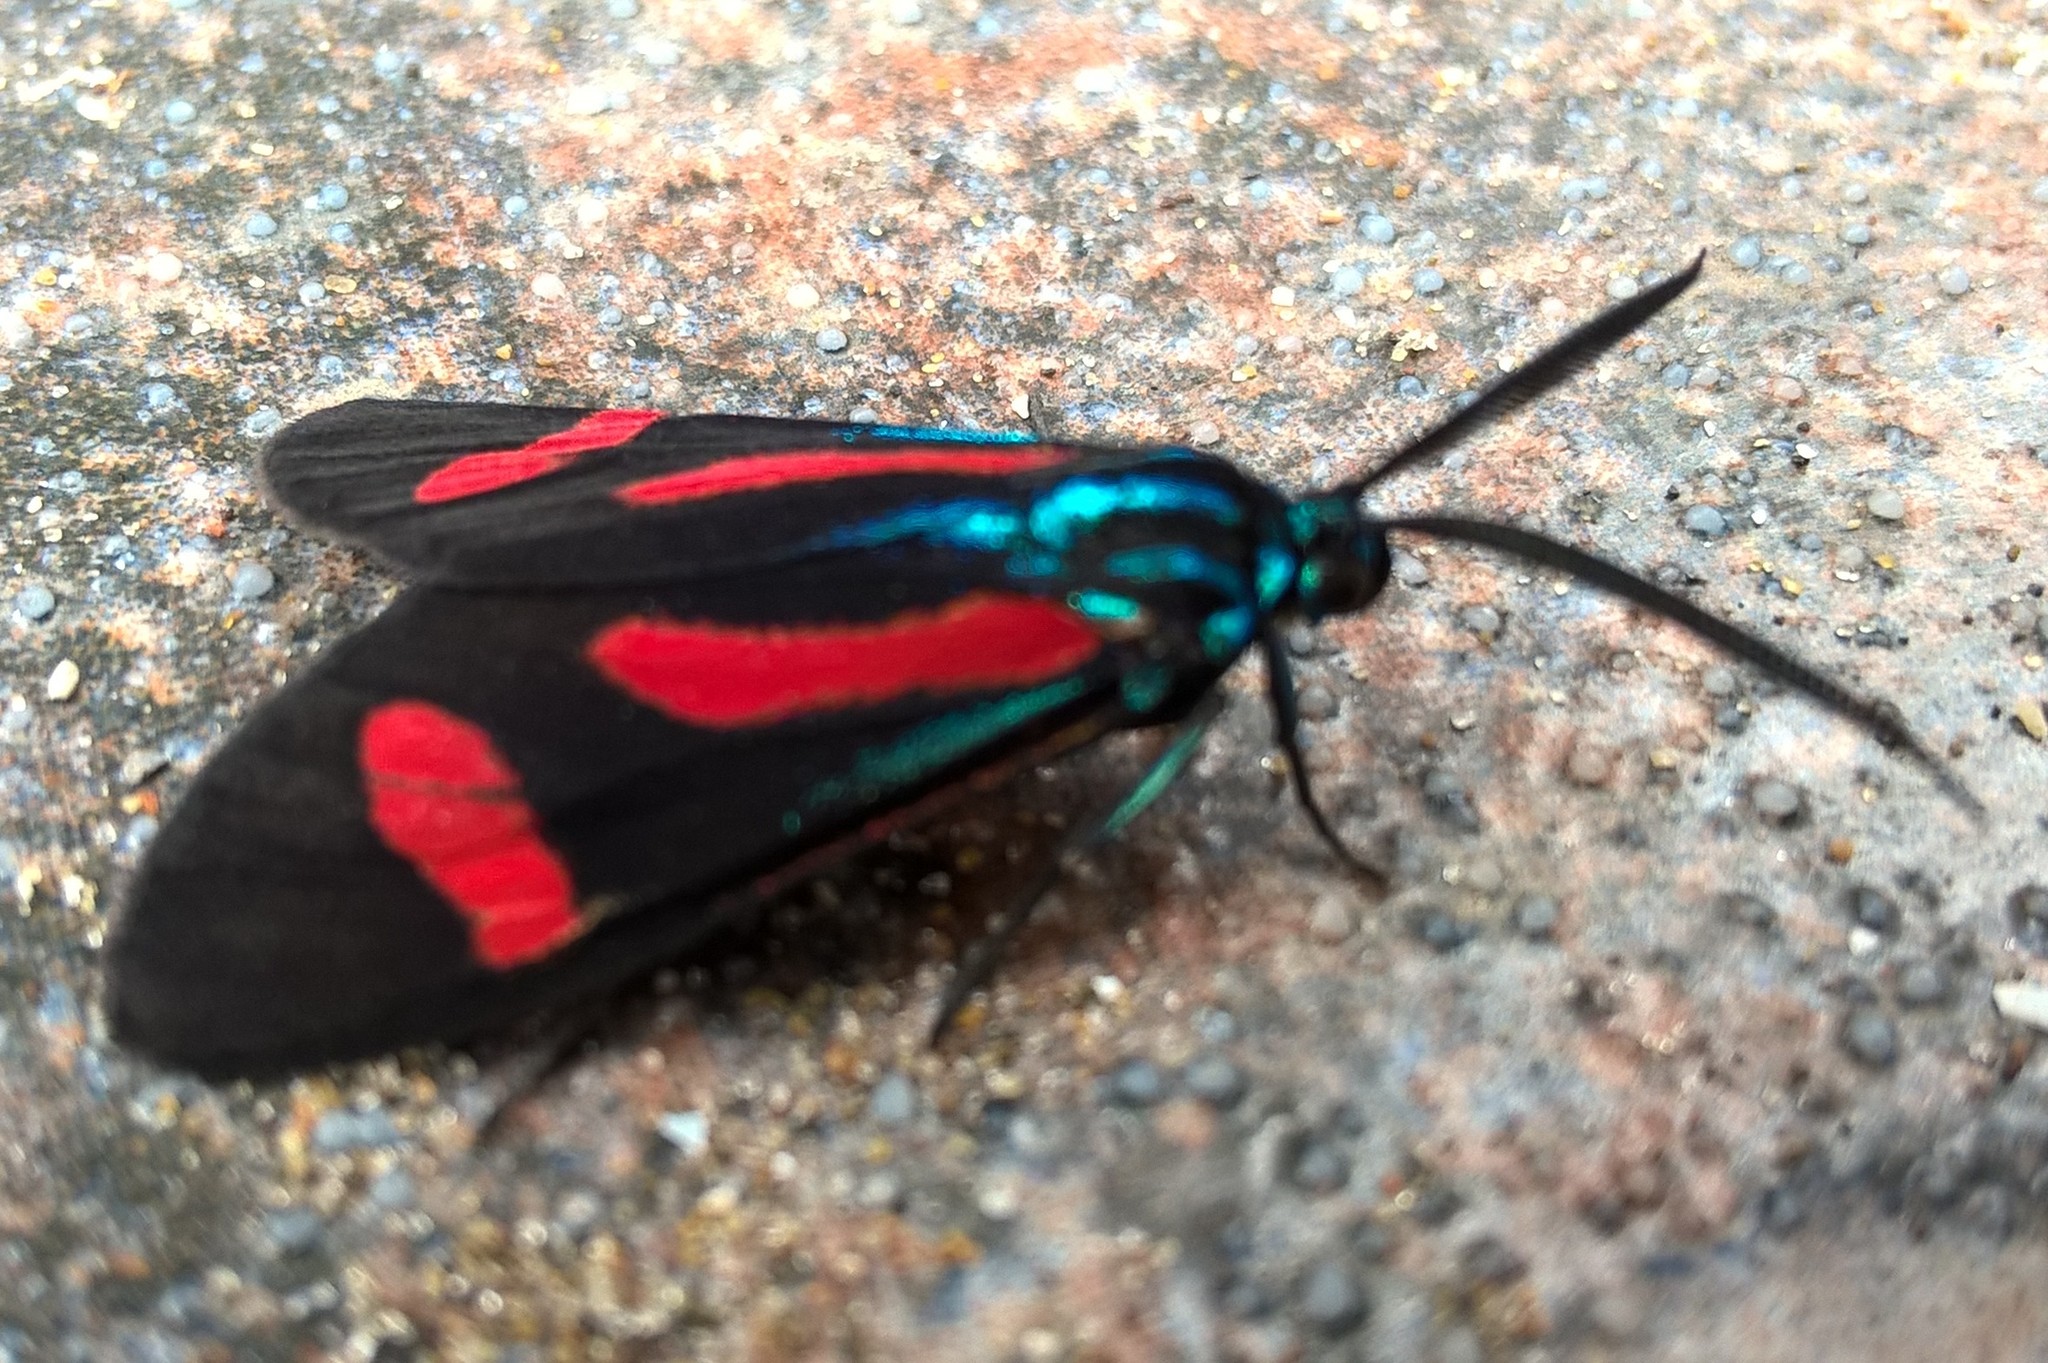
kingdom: Animalia
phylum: Arthropoda
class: Insecta
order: Lepidoptera
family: Erebidae
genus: Cyanopepla
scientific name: Cyanopepla jucunda
